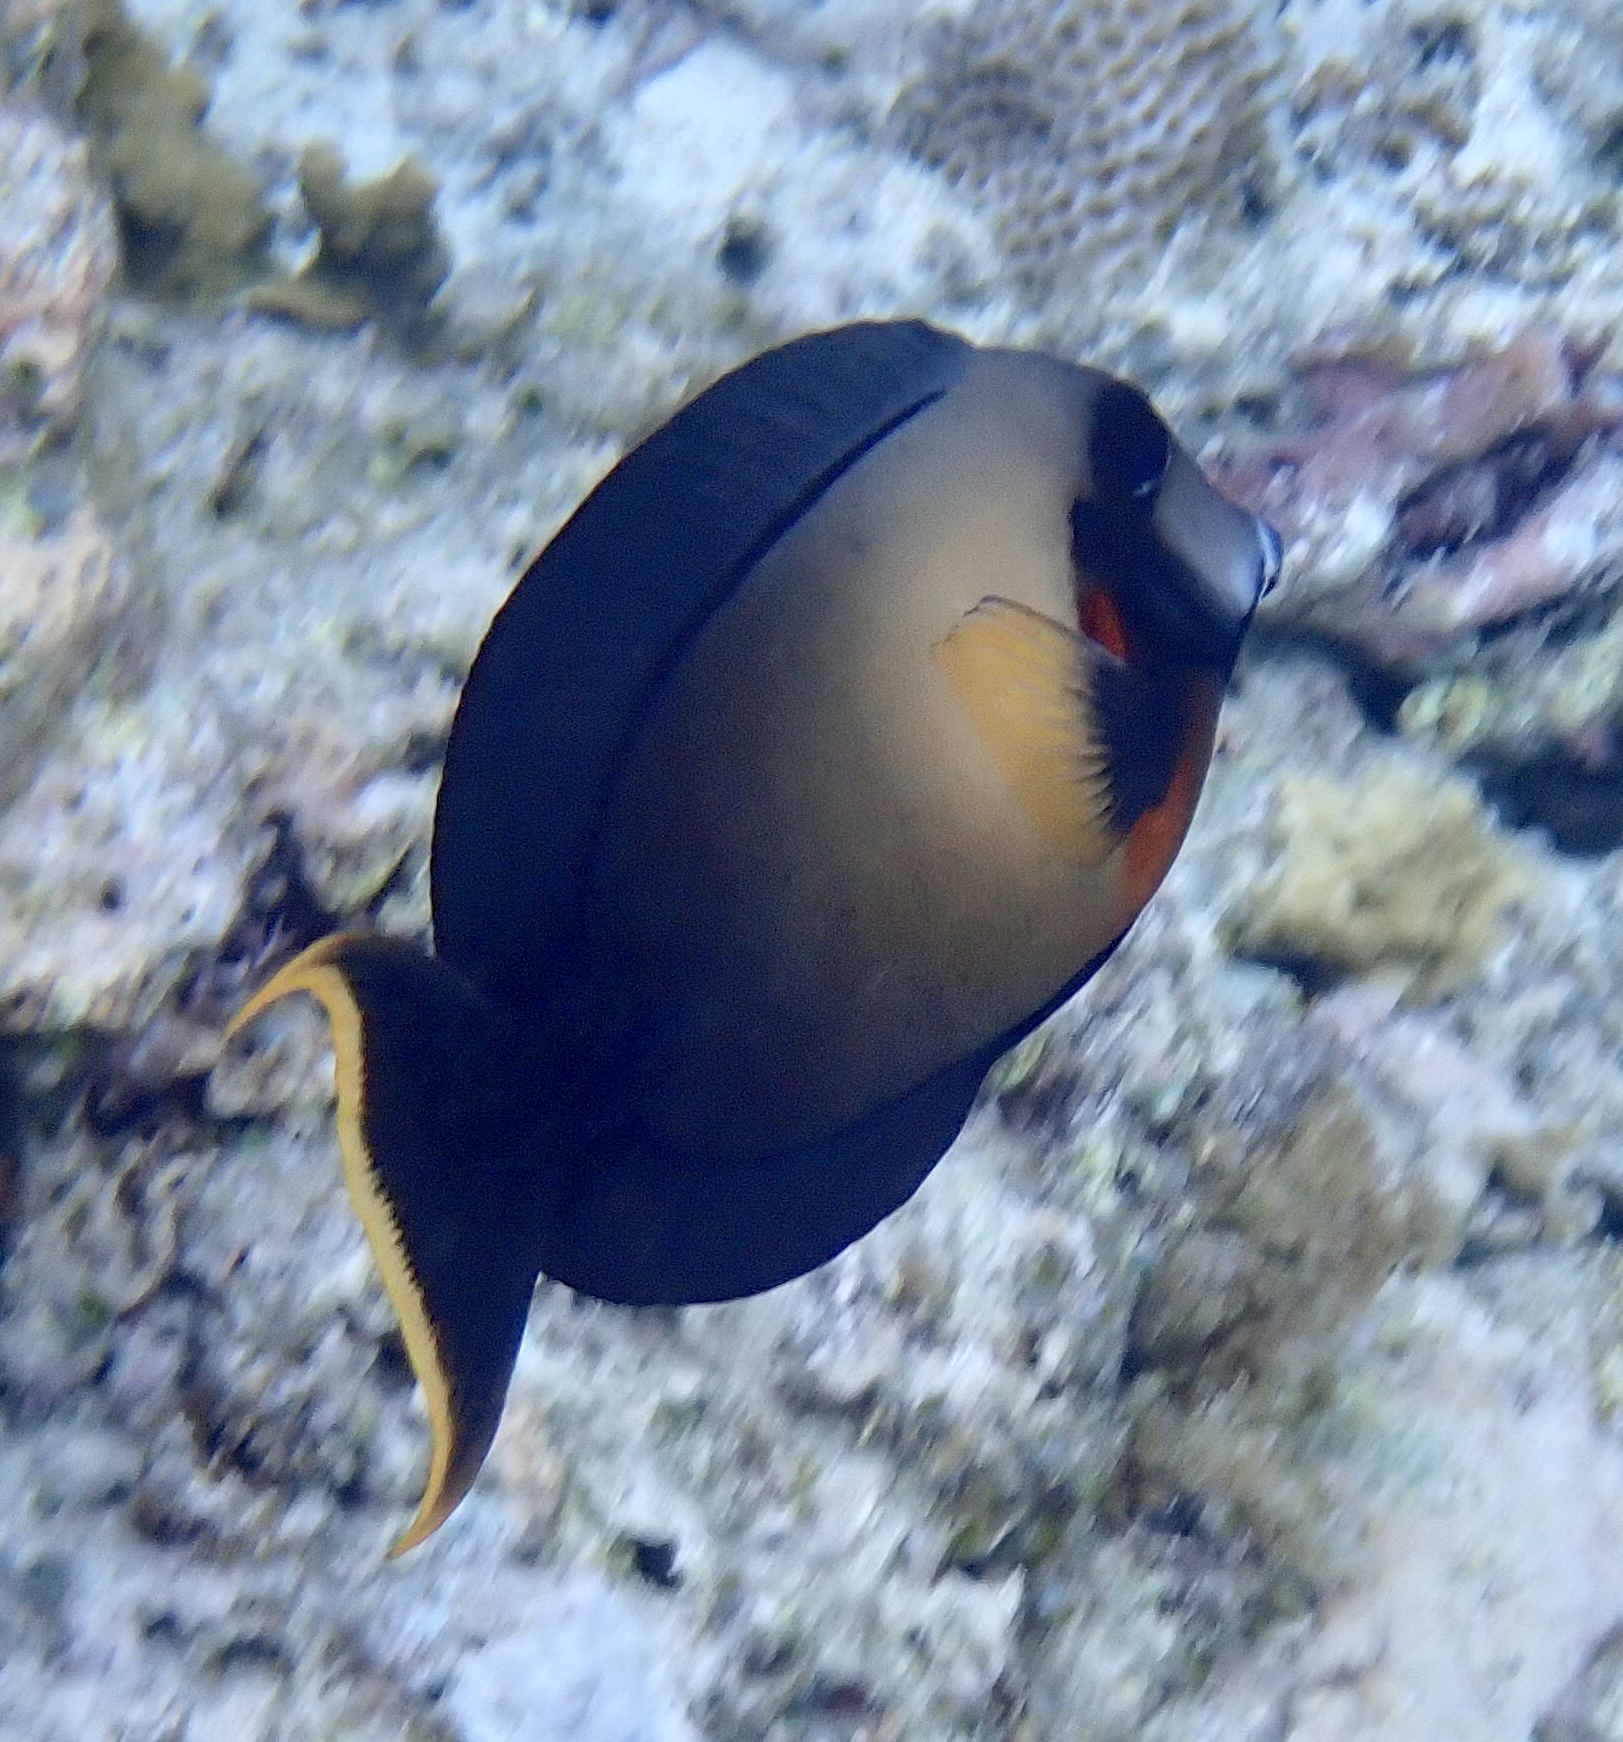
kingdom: Animalia
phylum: Chordata
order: Perciformes
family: Acanthuridae
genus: Acanthurus
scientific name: Acanthurus pyroferus
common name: Chocolate surgeonfish
